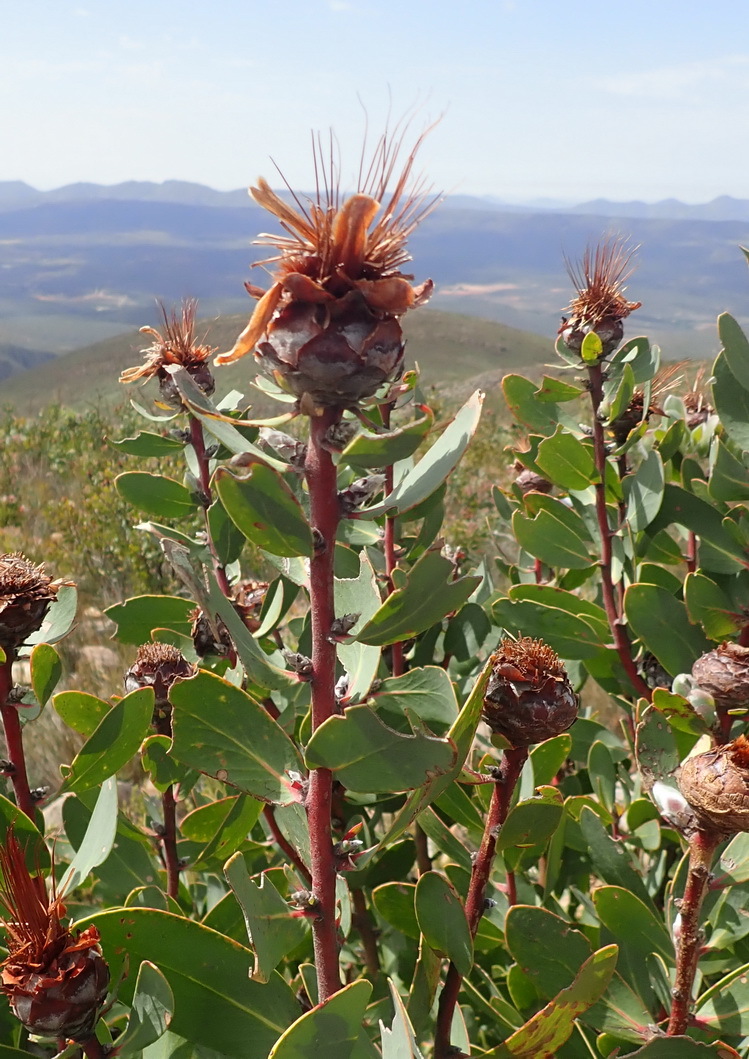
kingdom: Plantae
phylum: Tracheophyta
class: Magnoliopsida
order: Proteales
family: Proteaceae
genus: Protea
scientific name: Protea punctata
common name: Water sugarbush
